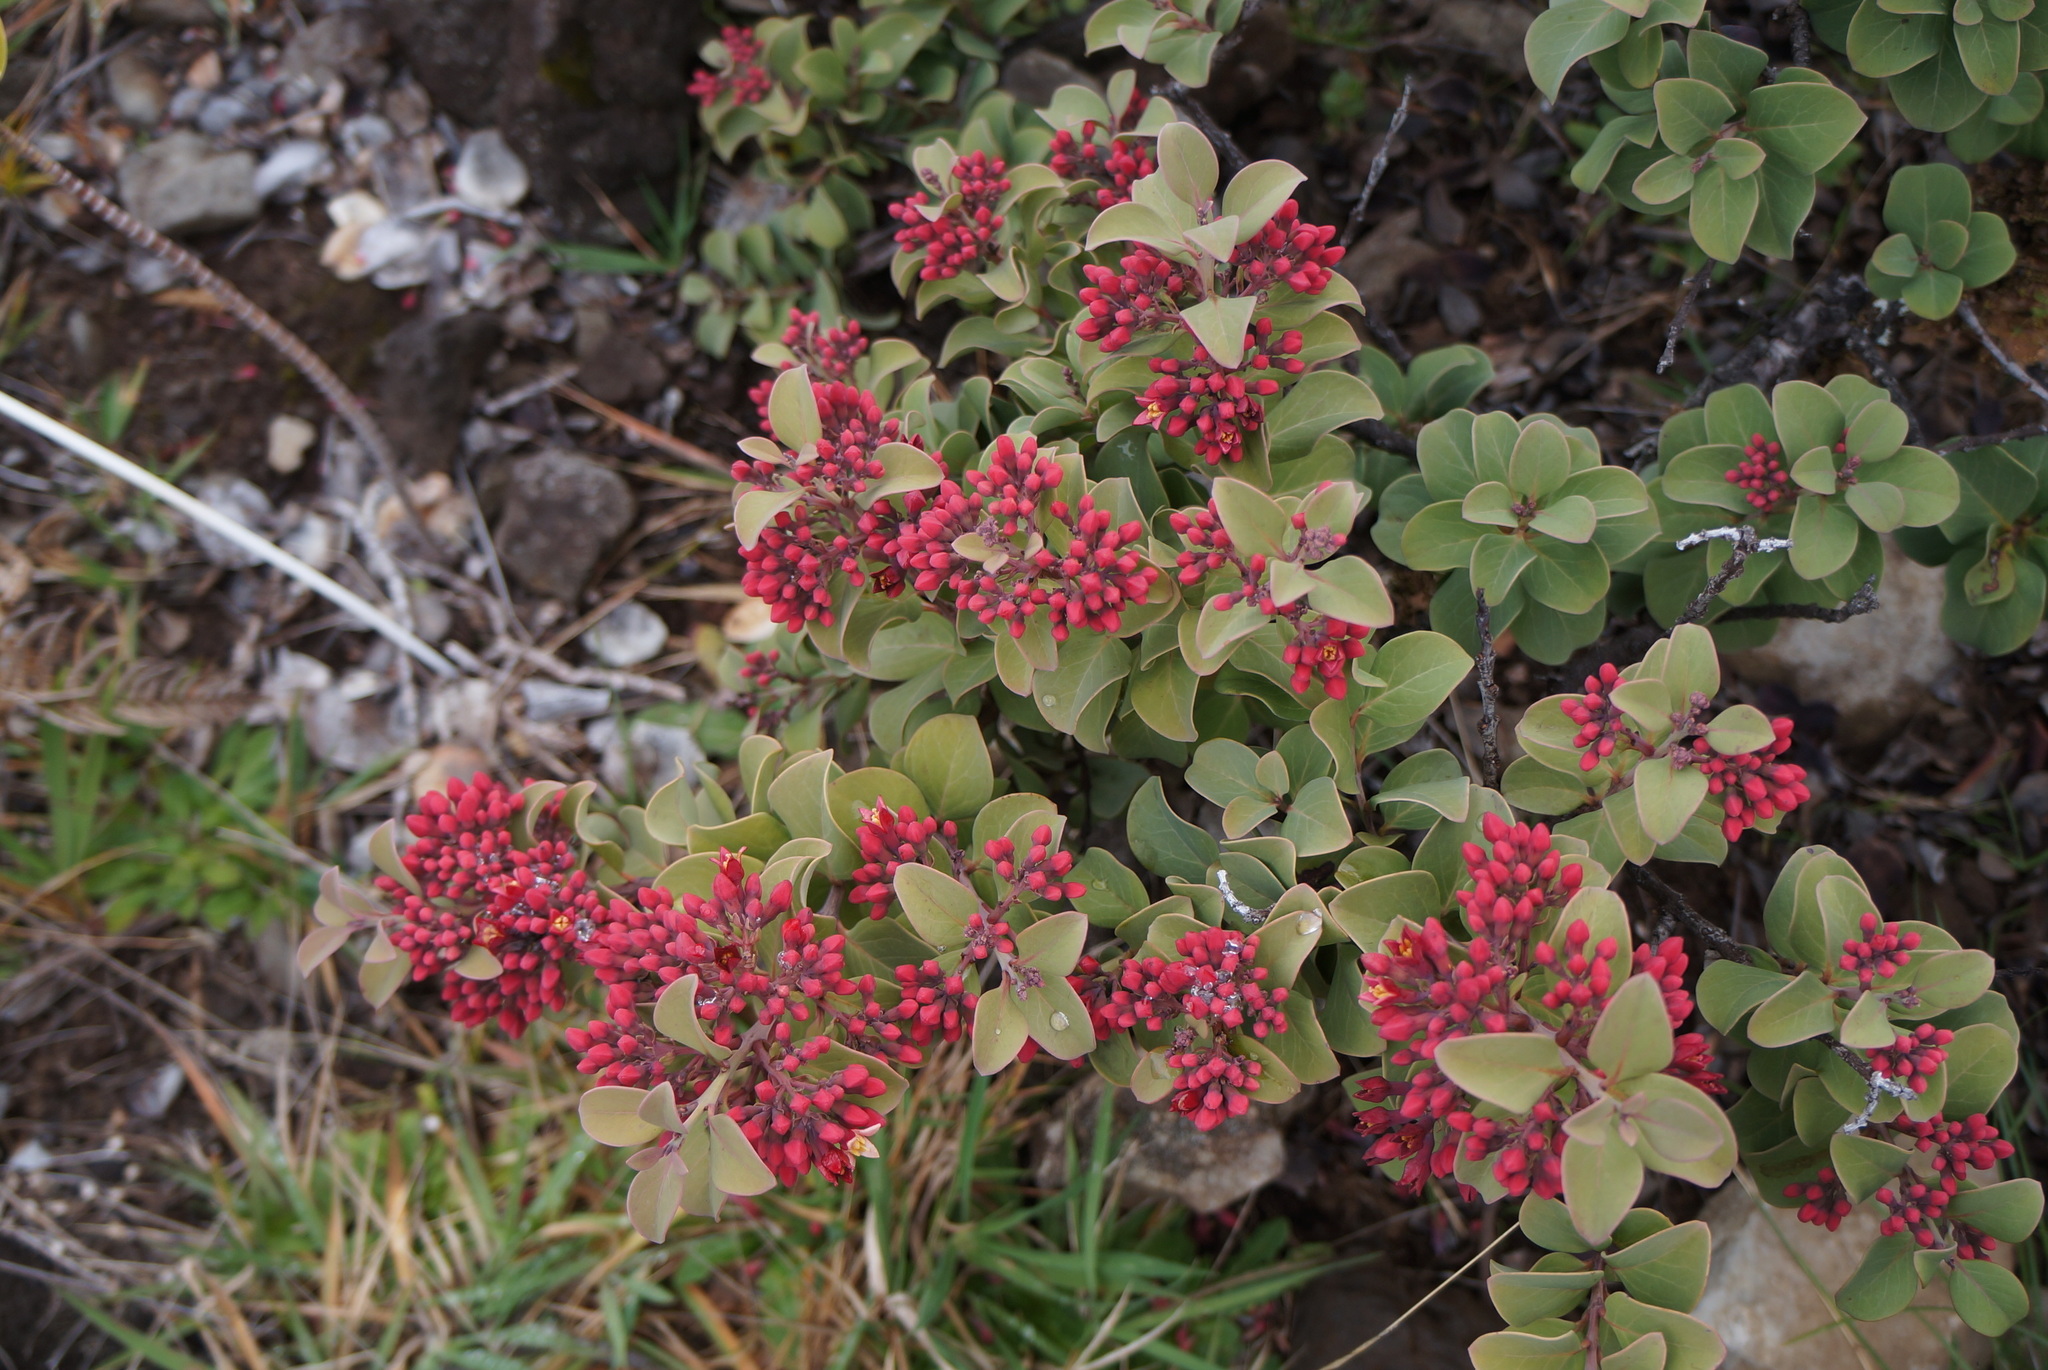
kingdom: Plantae
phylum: Tracheophyta
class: Magnoliopsida
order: Santalales
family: Santalaceae
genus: Santalum
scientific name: Santalum haleakalae
